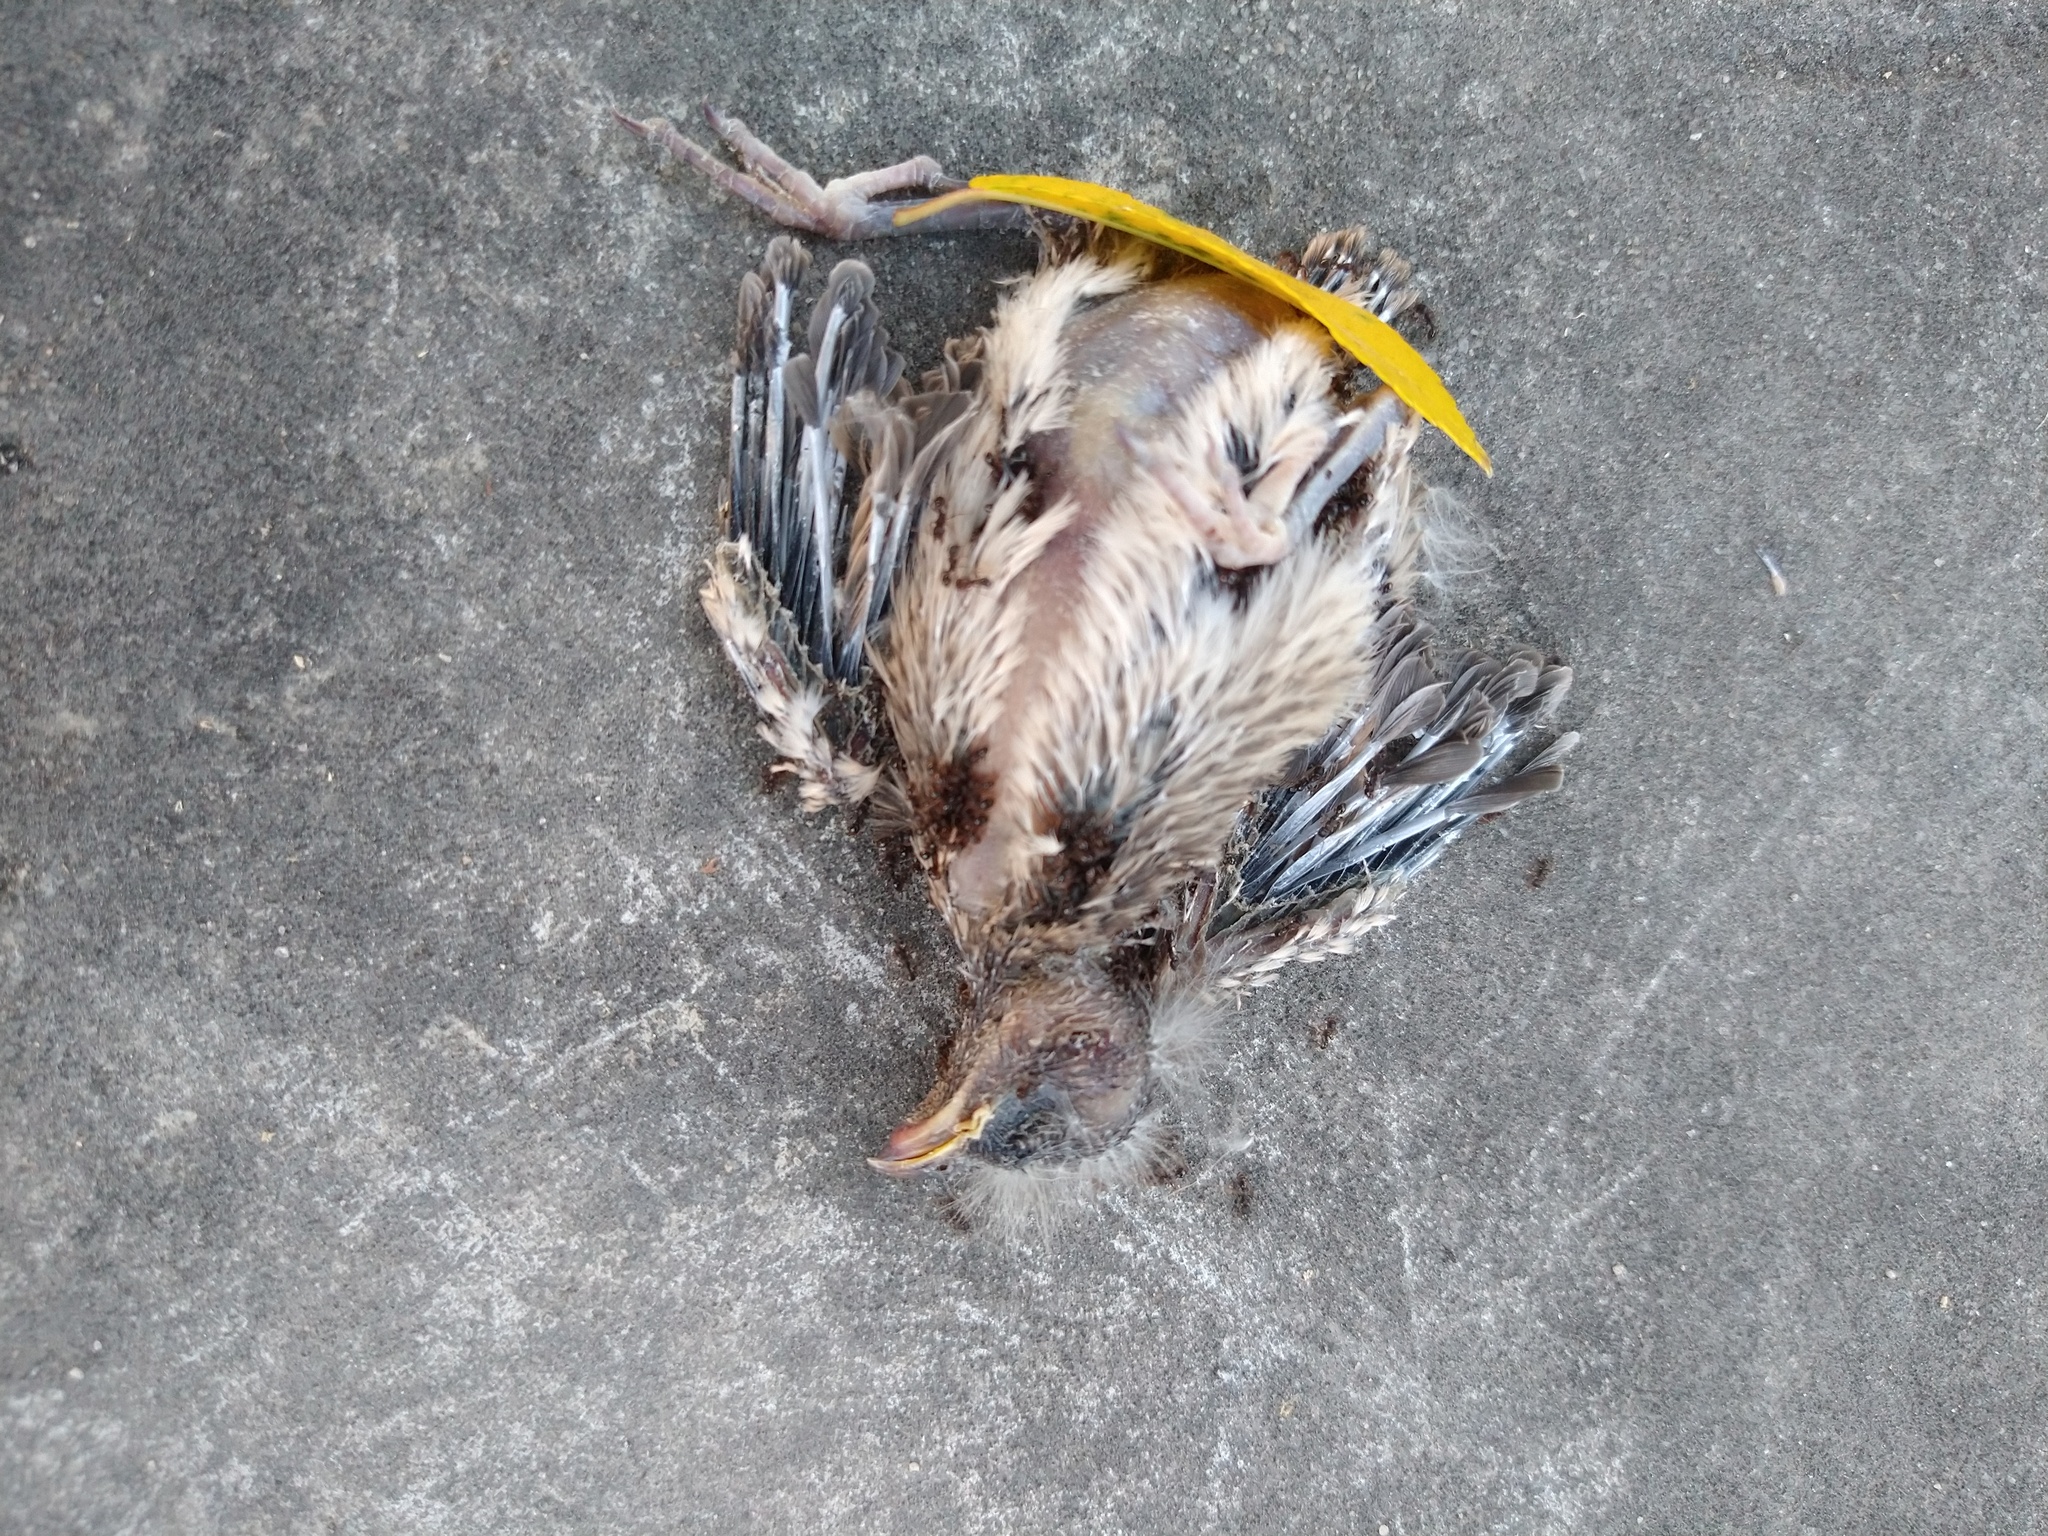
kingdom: Animalia
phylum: Chordata
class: Aves
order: Passeriformes
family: Fringillidae
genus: Haemorhous
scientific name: Haemorhous mexicanus
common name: House finch
